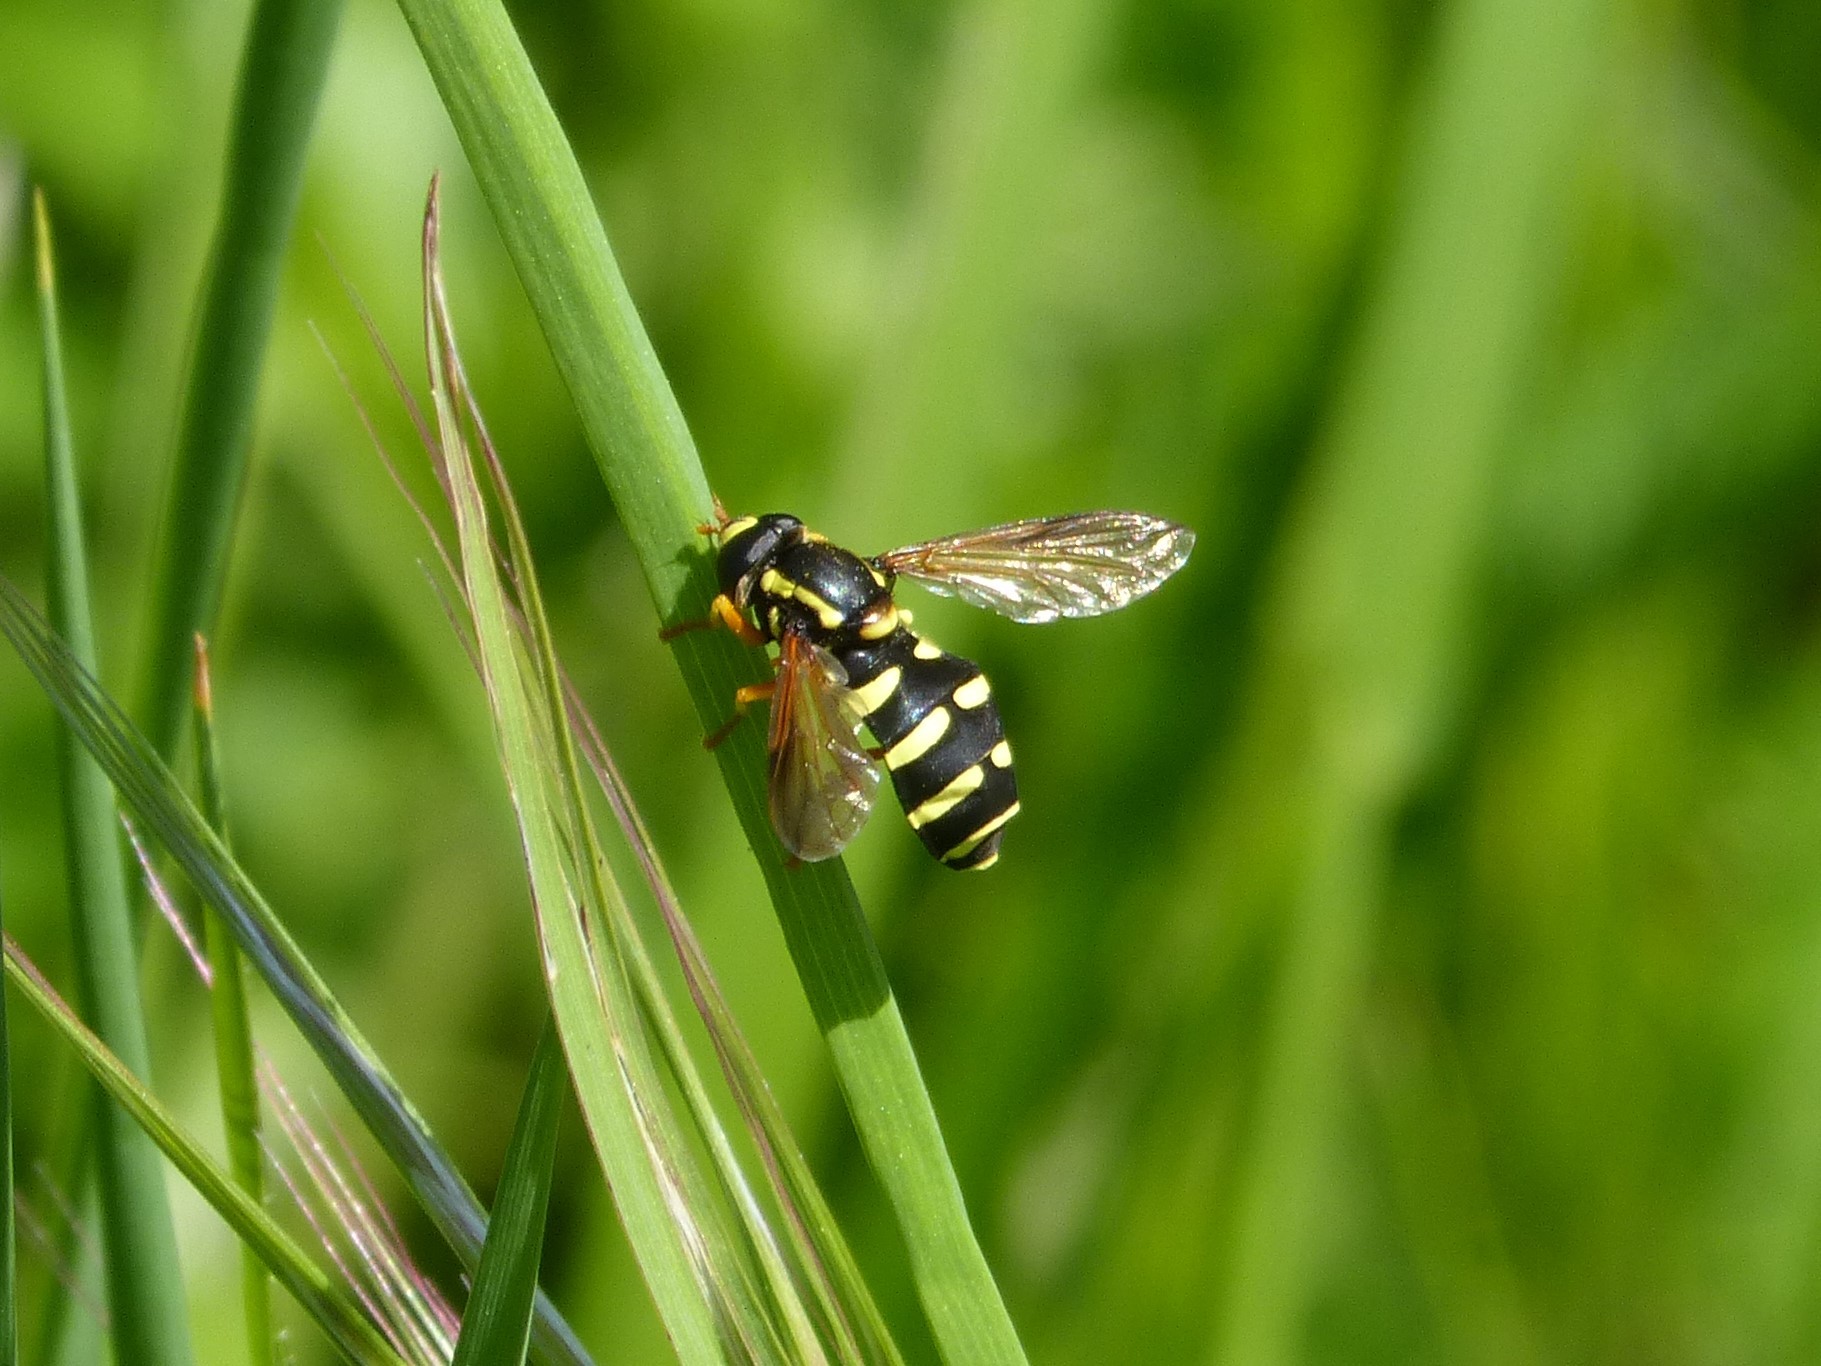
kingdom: Animalia
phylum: Arthropoda
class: Insecta
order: Diptera
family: Syrphidae
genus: Philhelius
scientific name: Philhelius citrofasciata
